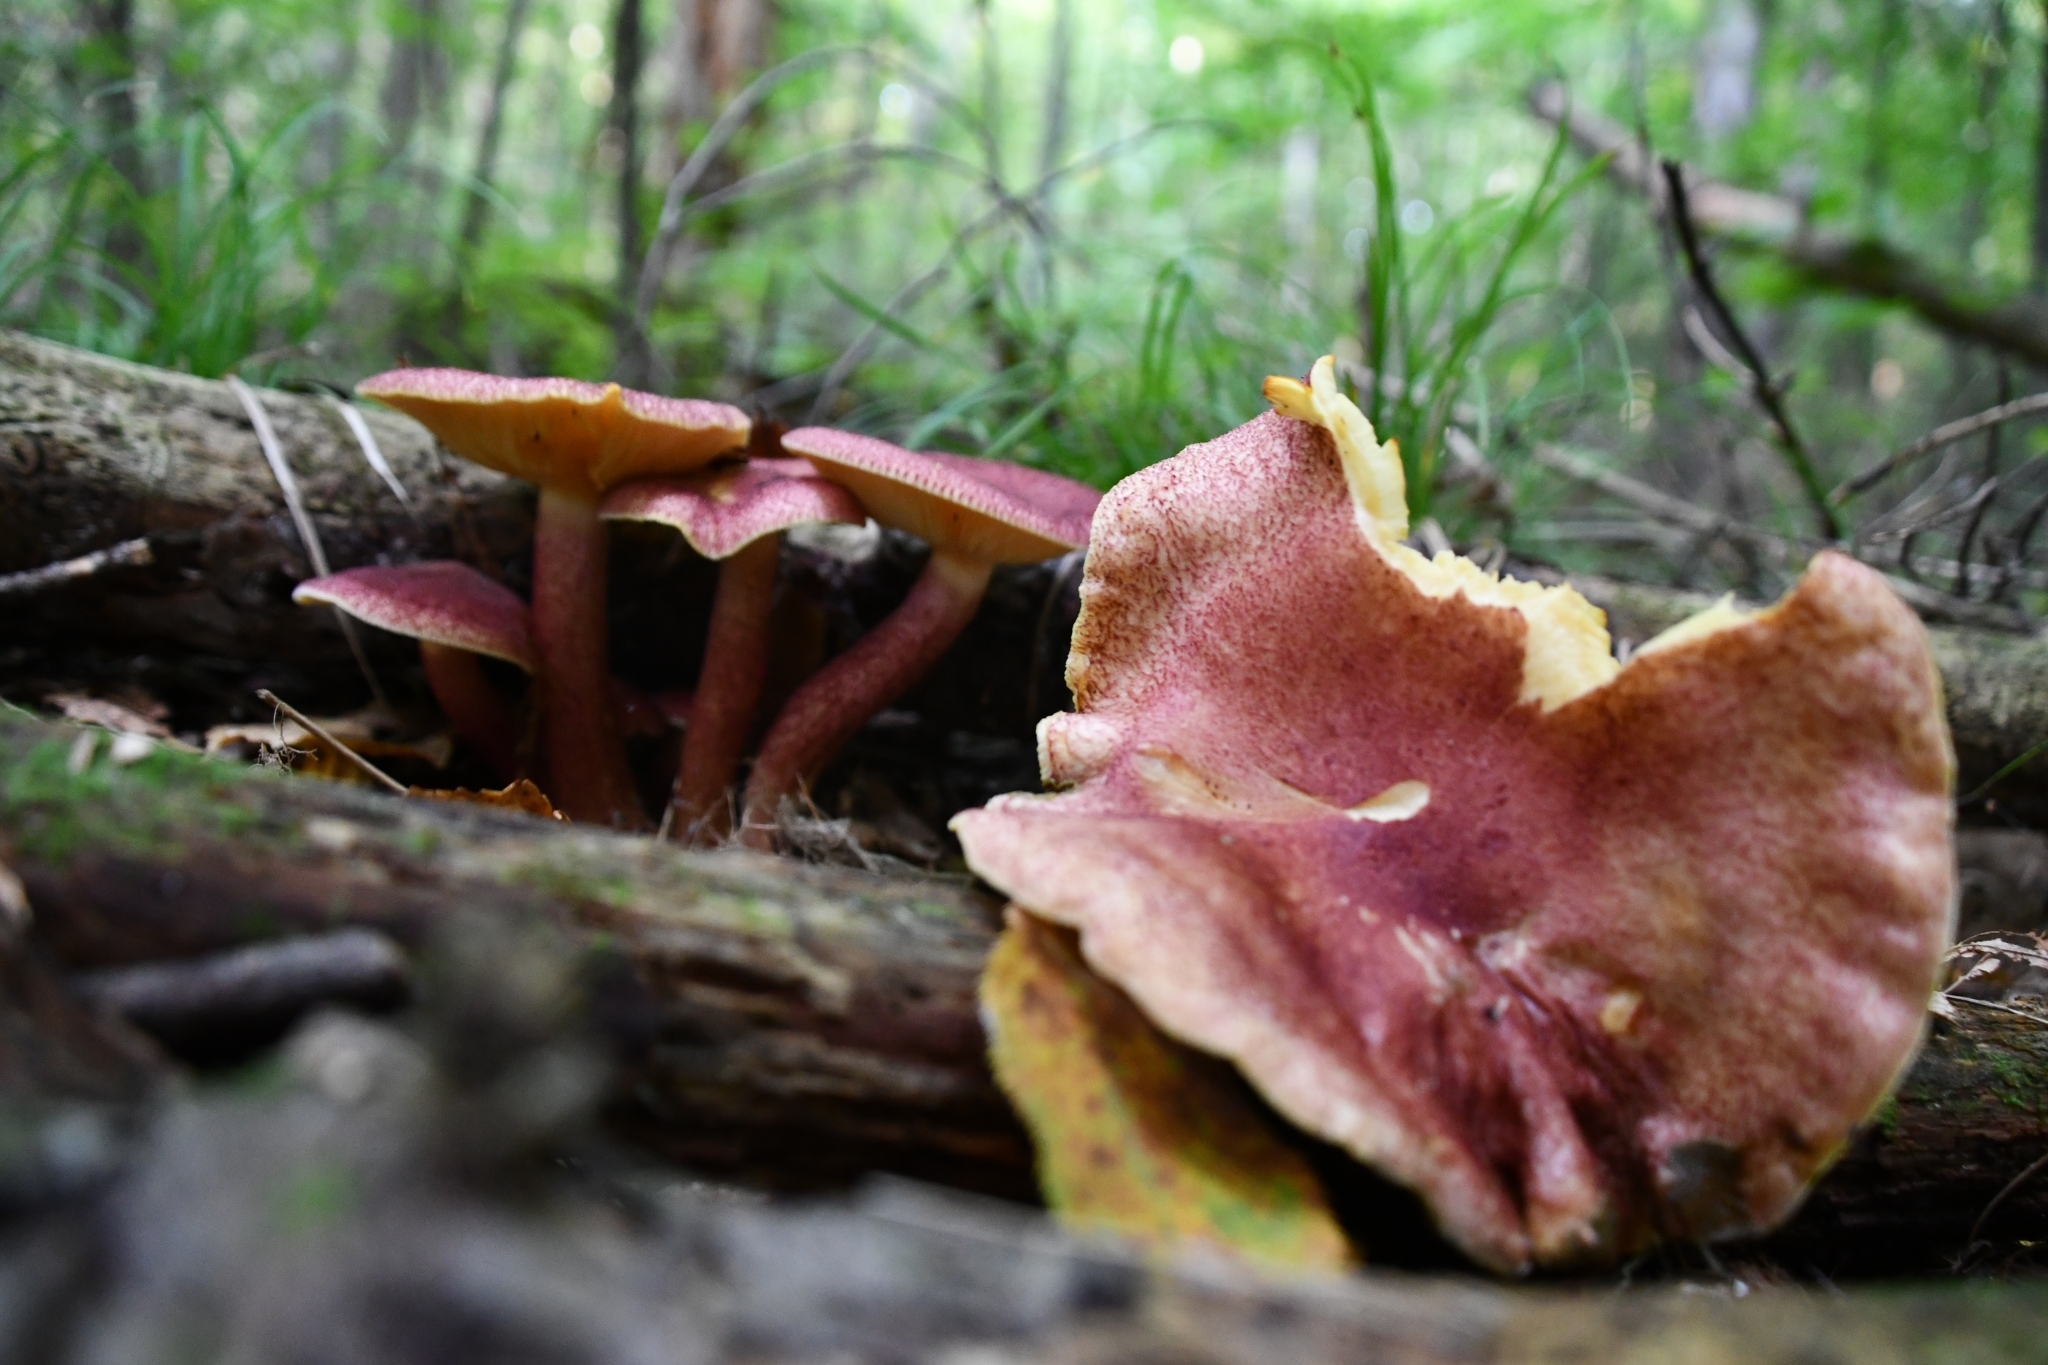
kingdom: Fungi
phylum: Basidiomycota
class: Agaricomycetes
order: Agaricales
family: Tricholomataceae
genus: Tricholomopsis
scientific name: Tricholomopsis rutilans
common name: Plums and custard
